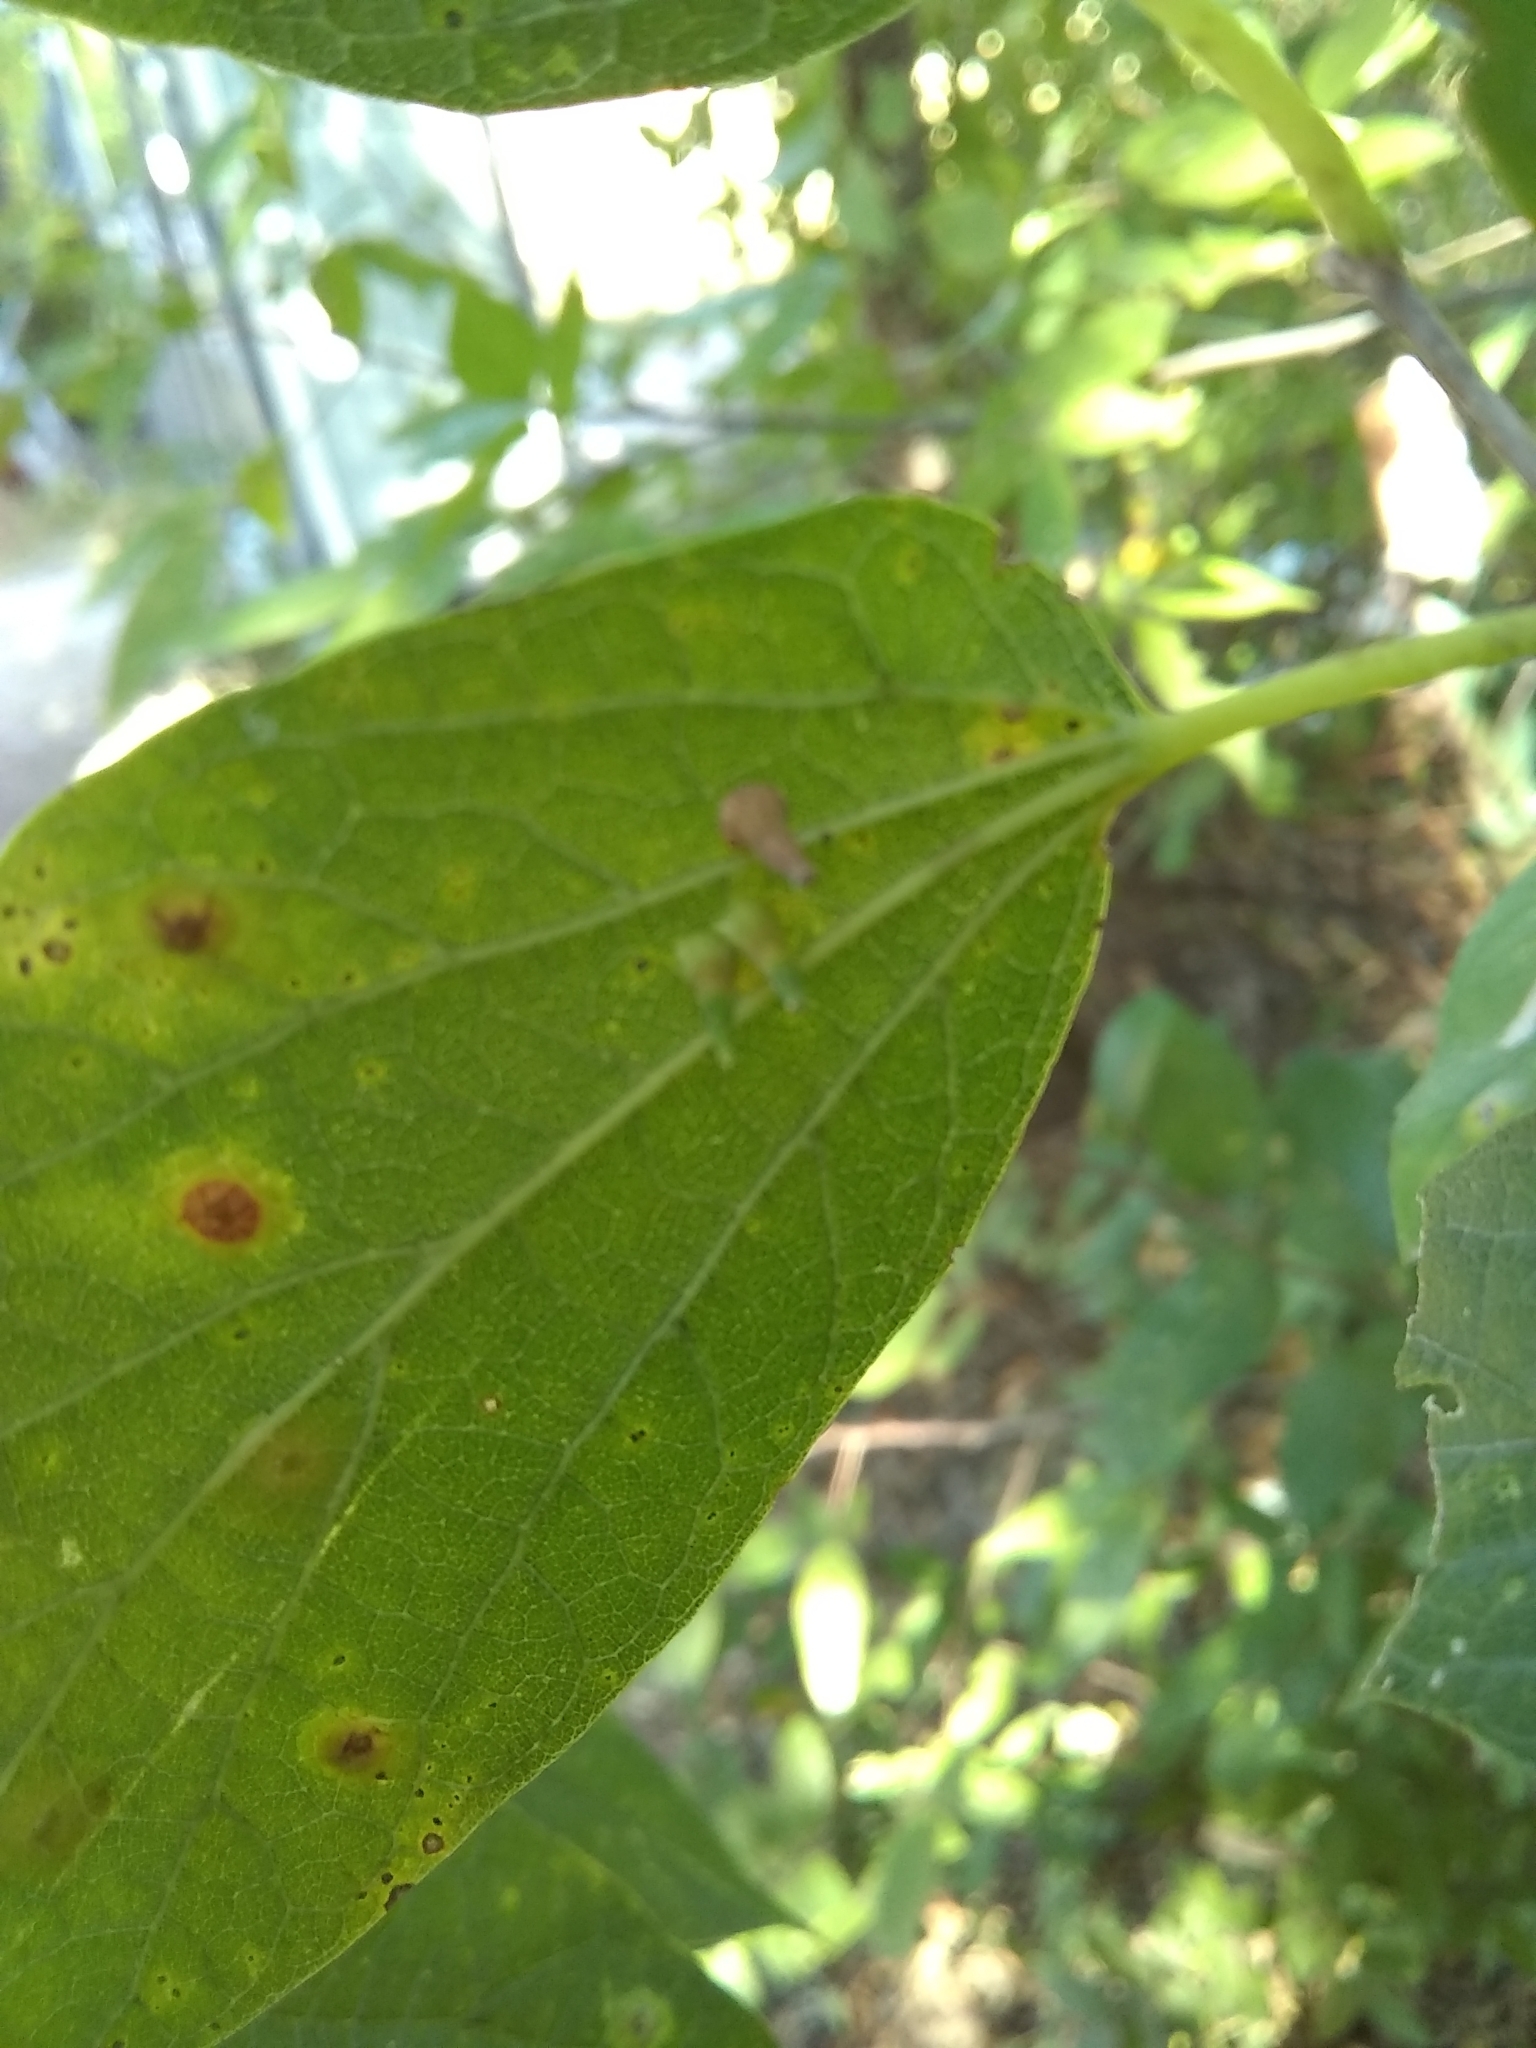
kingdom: Animalia
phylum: Arthropoda
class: Insecta
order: Diptera
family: Cecidomyiidae
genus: Celticecis
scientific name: Celticecis subulata
